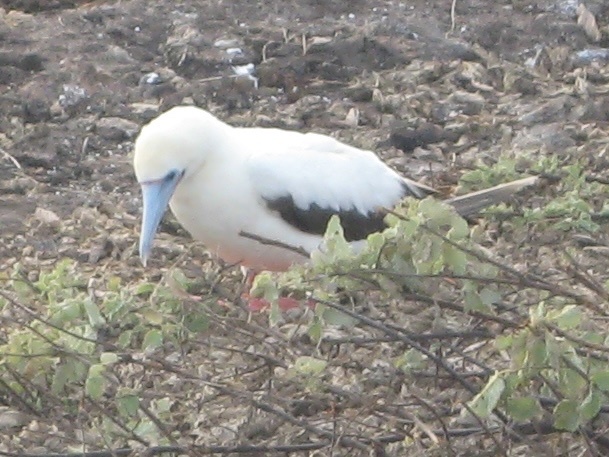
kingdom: Animalia
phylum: Chordata
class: Aves
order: Suliformes
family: Sulidae
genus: Sula
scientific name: Sula sula
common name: Red-footed booby
